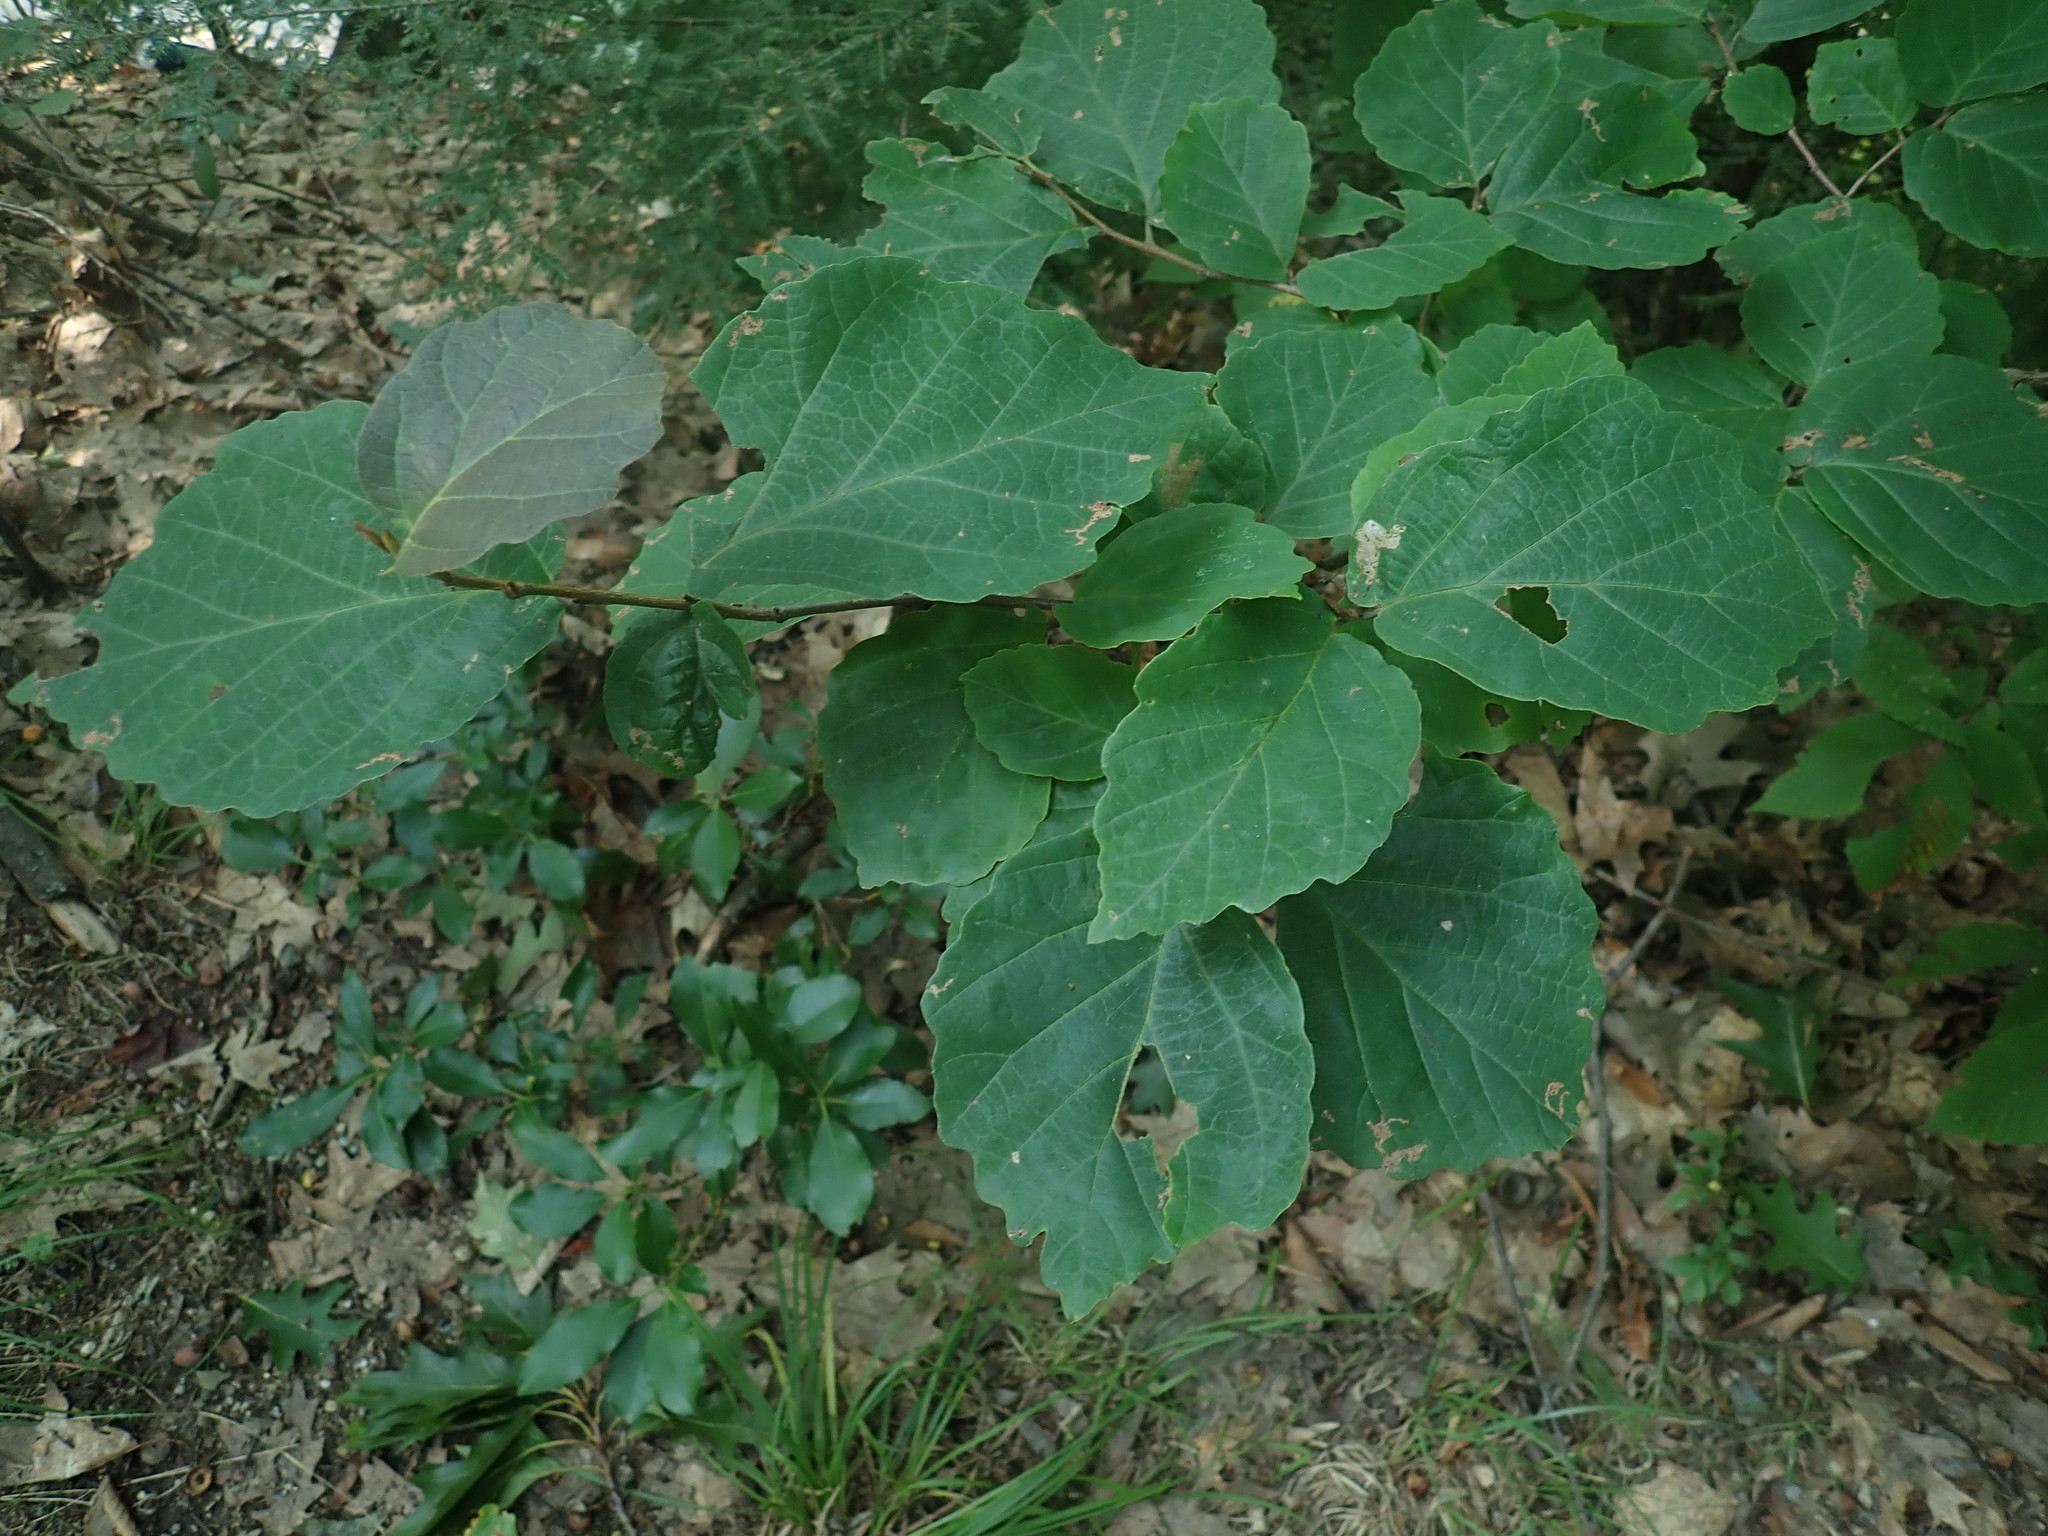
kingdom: Plantae
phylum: Tracheophyta
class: Magnoliopsida
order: Saxifragales
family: Hamamelidaceae
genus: Hamamelis
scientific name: Hamamelis virginiana
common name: Witch-hazel
